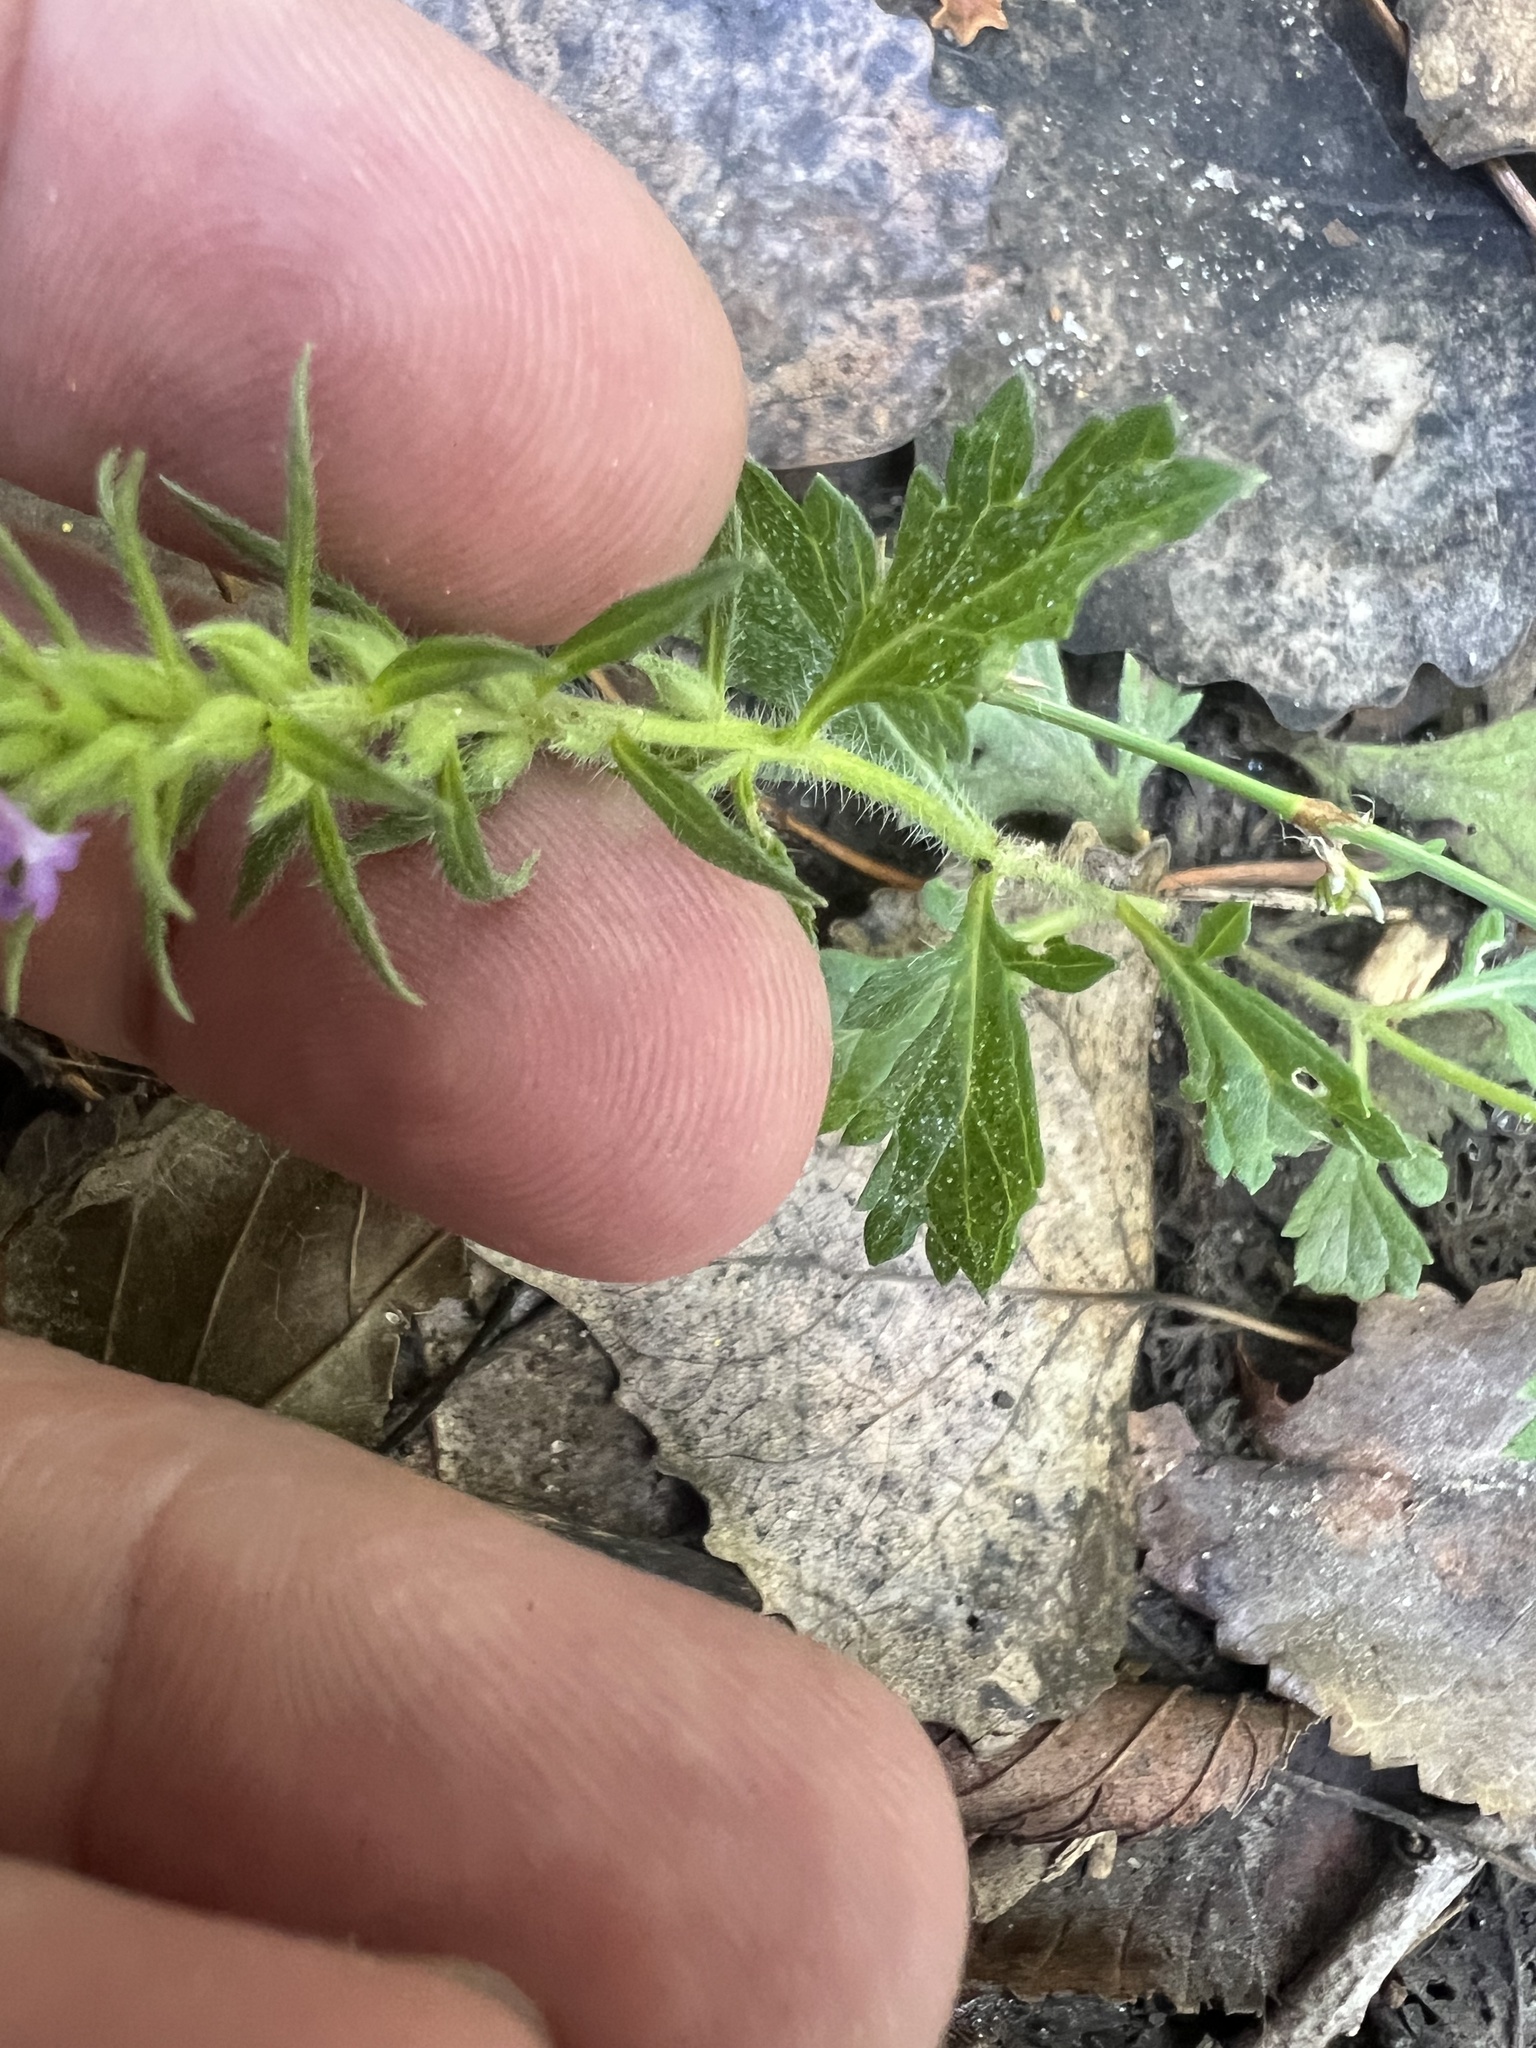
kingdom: Plantae
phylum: Tracheophyta
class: Magnoliopsida
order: Lamiales
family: Verbenaceae
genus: Verbena
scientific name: Verbena bracteata
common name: Bracted vervain
